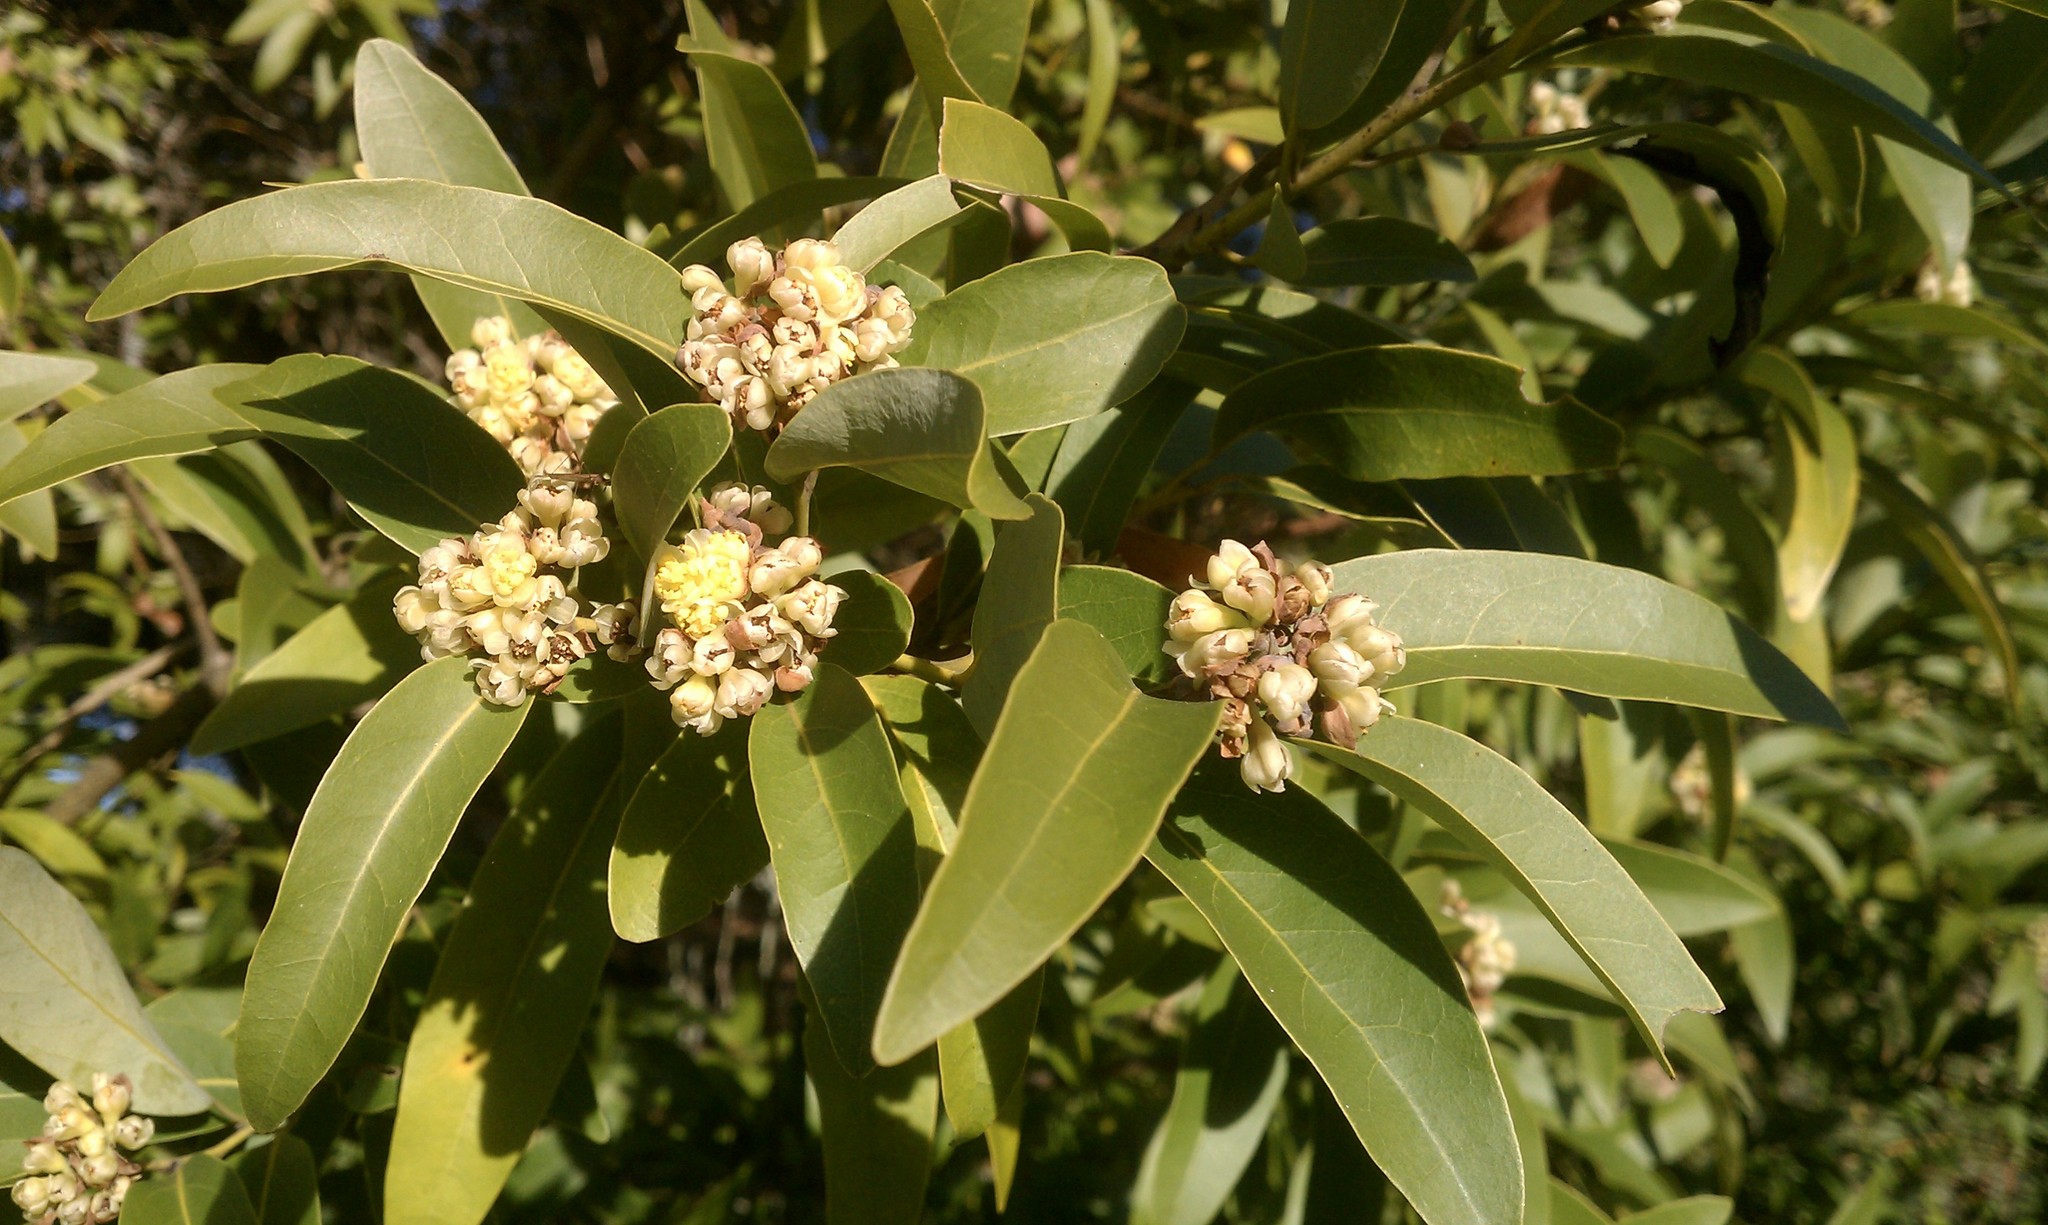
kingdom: Plantae
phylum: Tracheophyta
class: Magnoliopsida
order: Laurales
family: Lauraceae
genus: Umbellularia
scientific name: Umbellularia californica
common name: California bay
